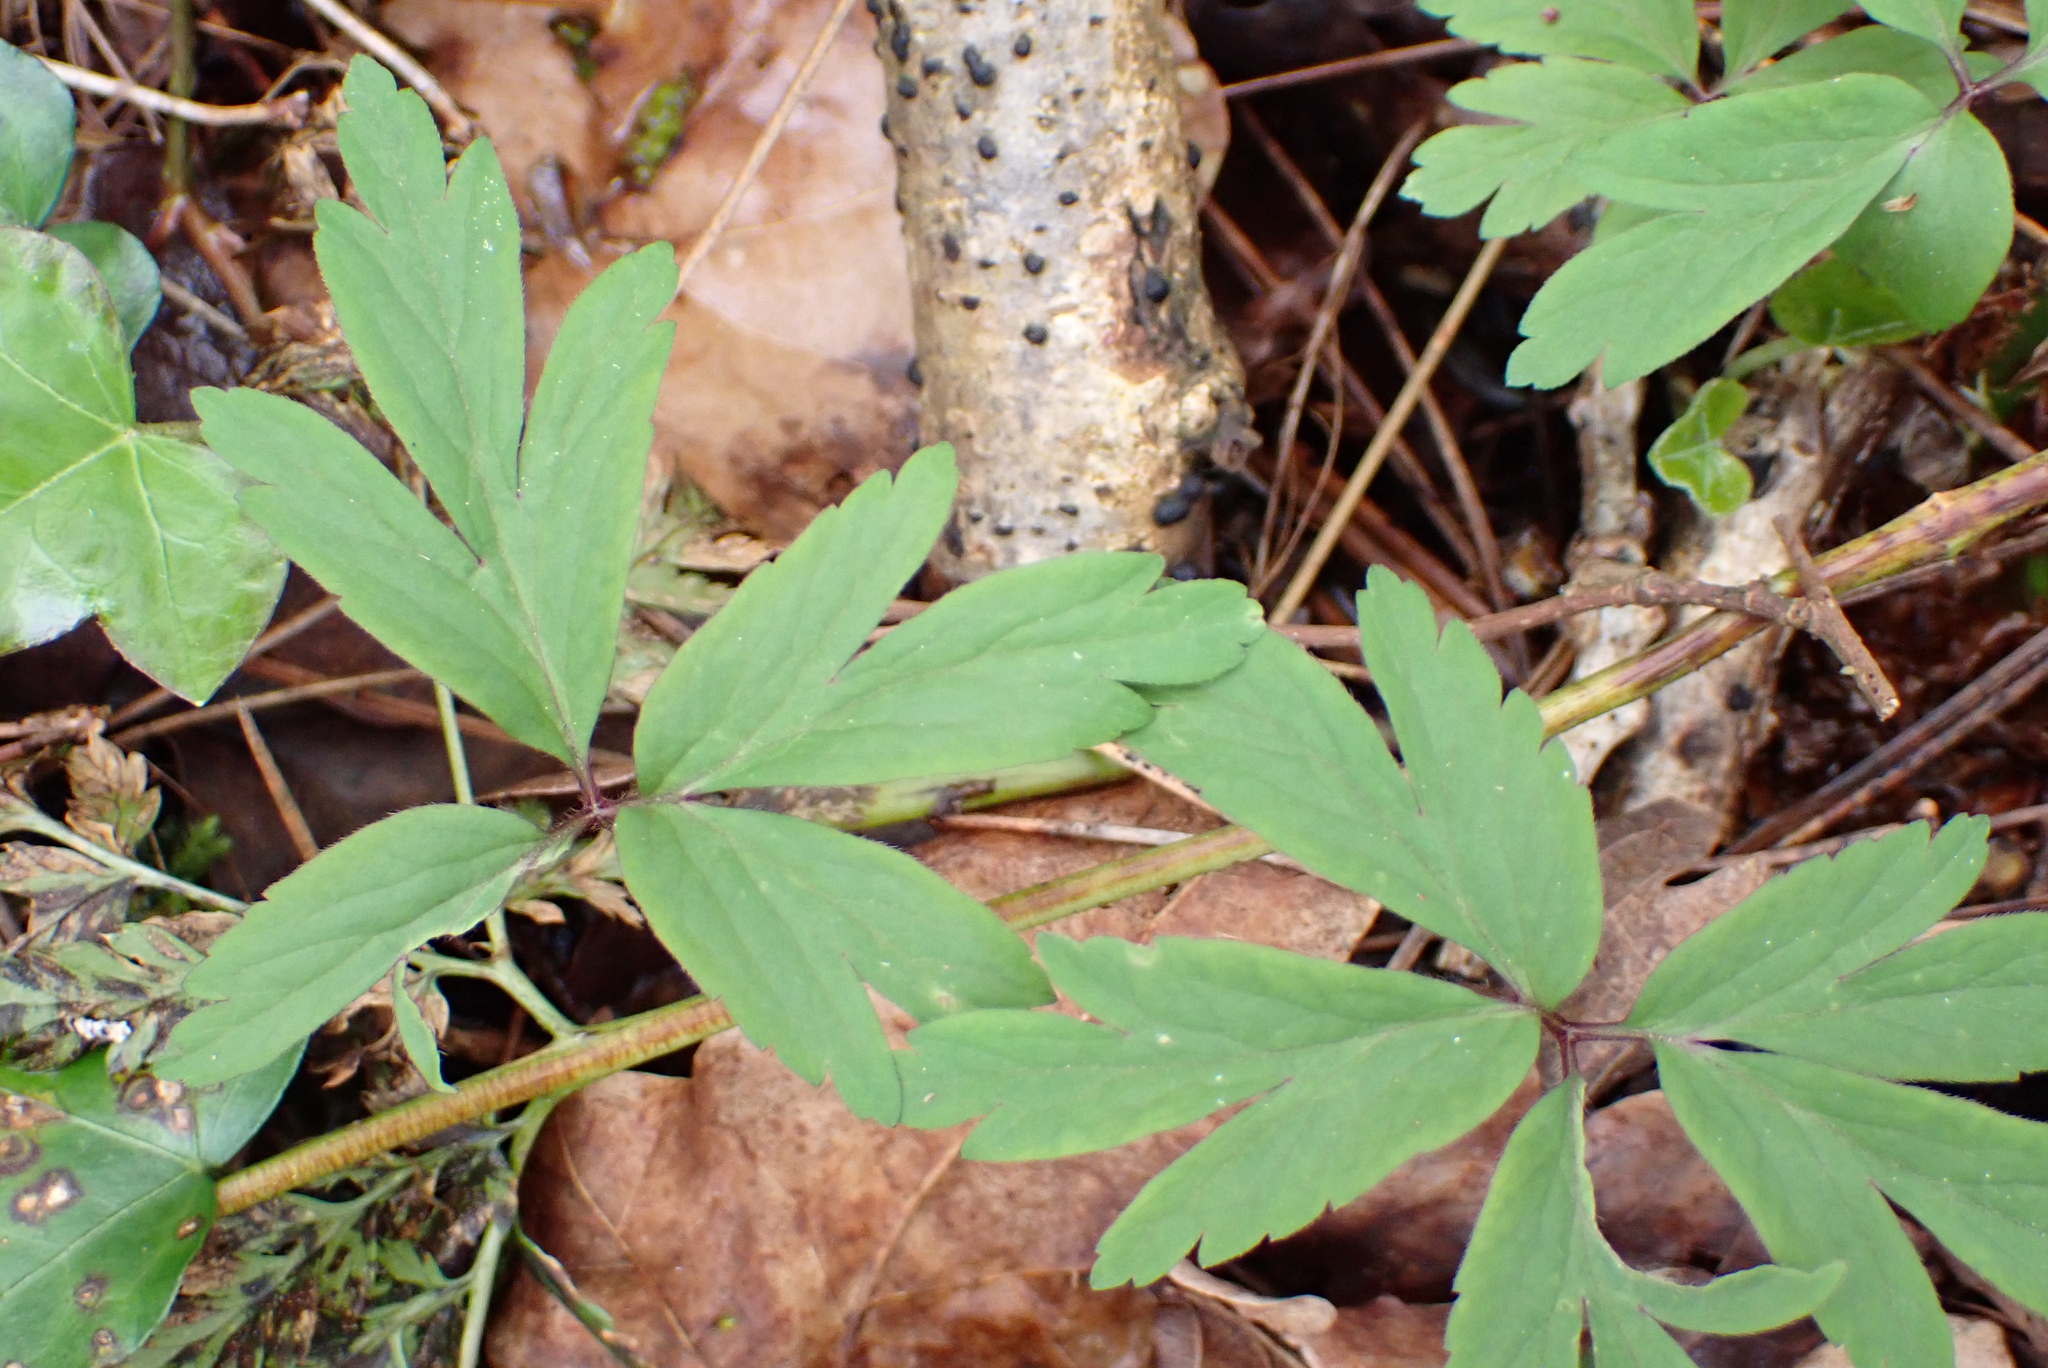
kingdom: Plantae
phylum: Tracheophyta
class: Magnoliopsida
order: Ranunculales
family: Ranunculaceae
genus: Anemone
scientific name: Anemone nemorosa
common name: Wood anemone
